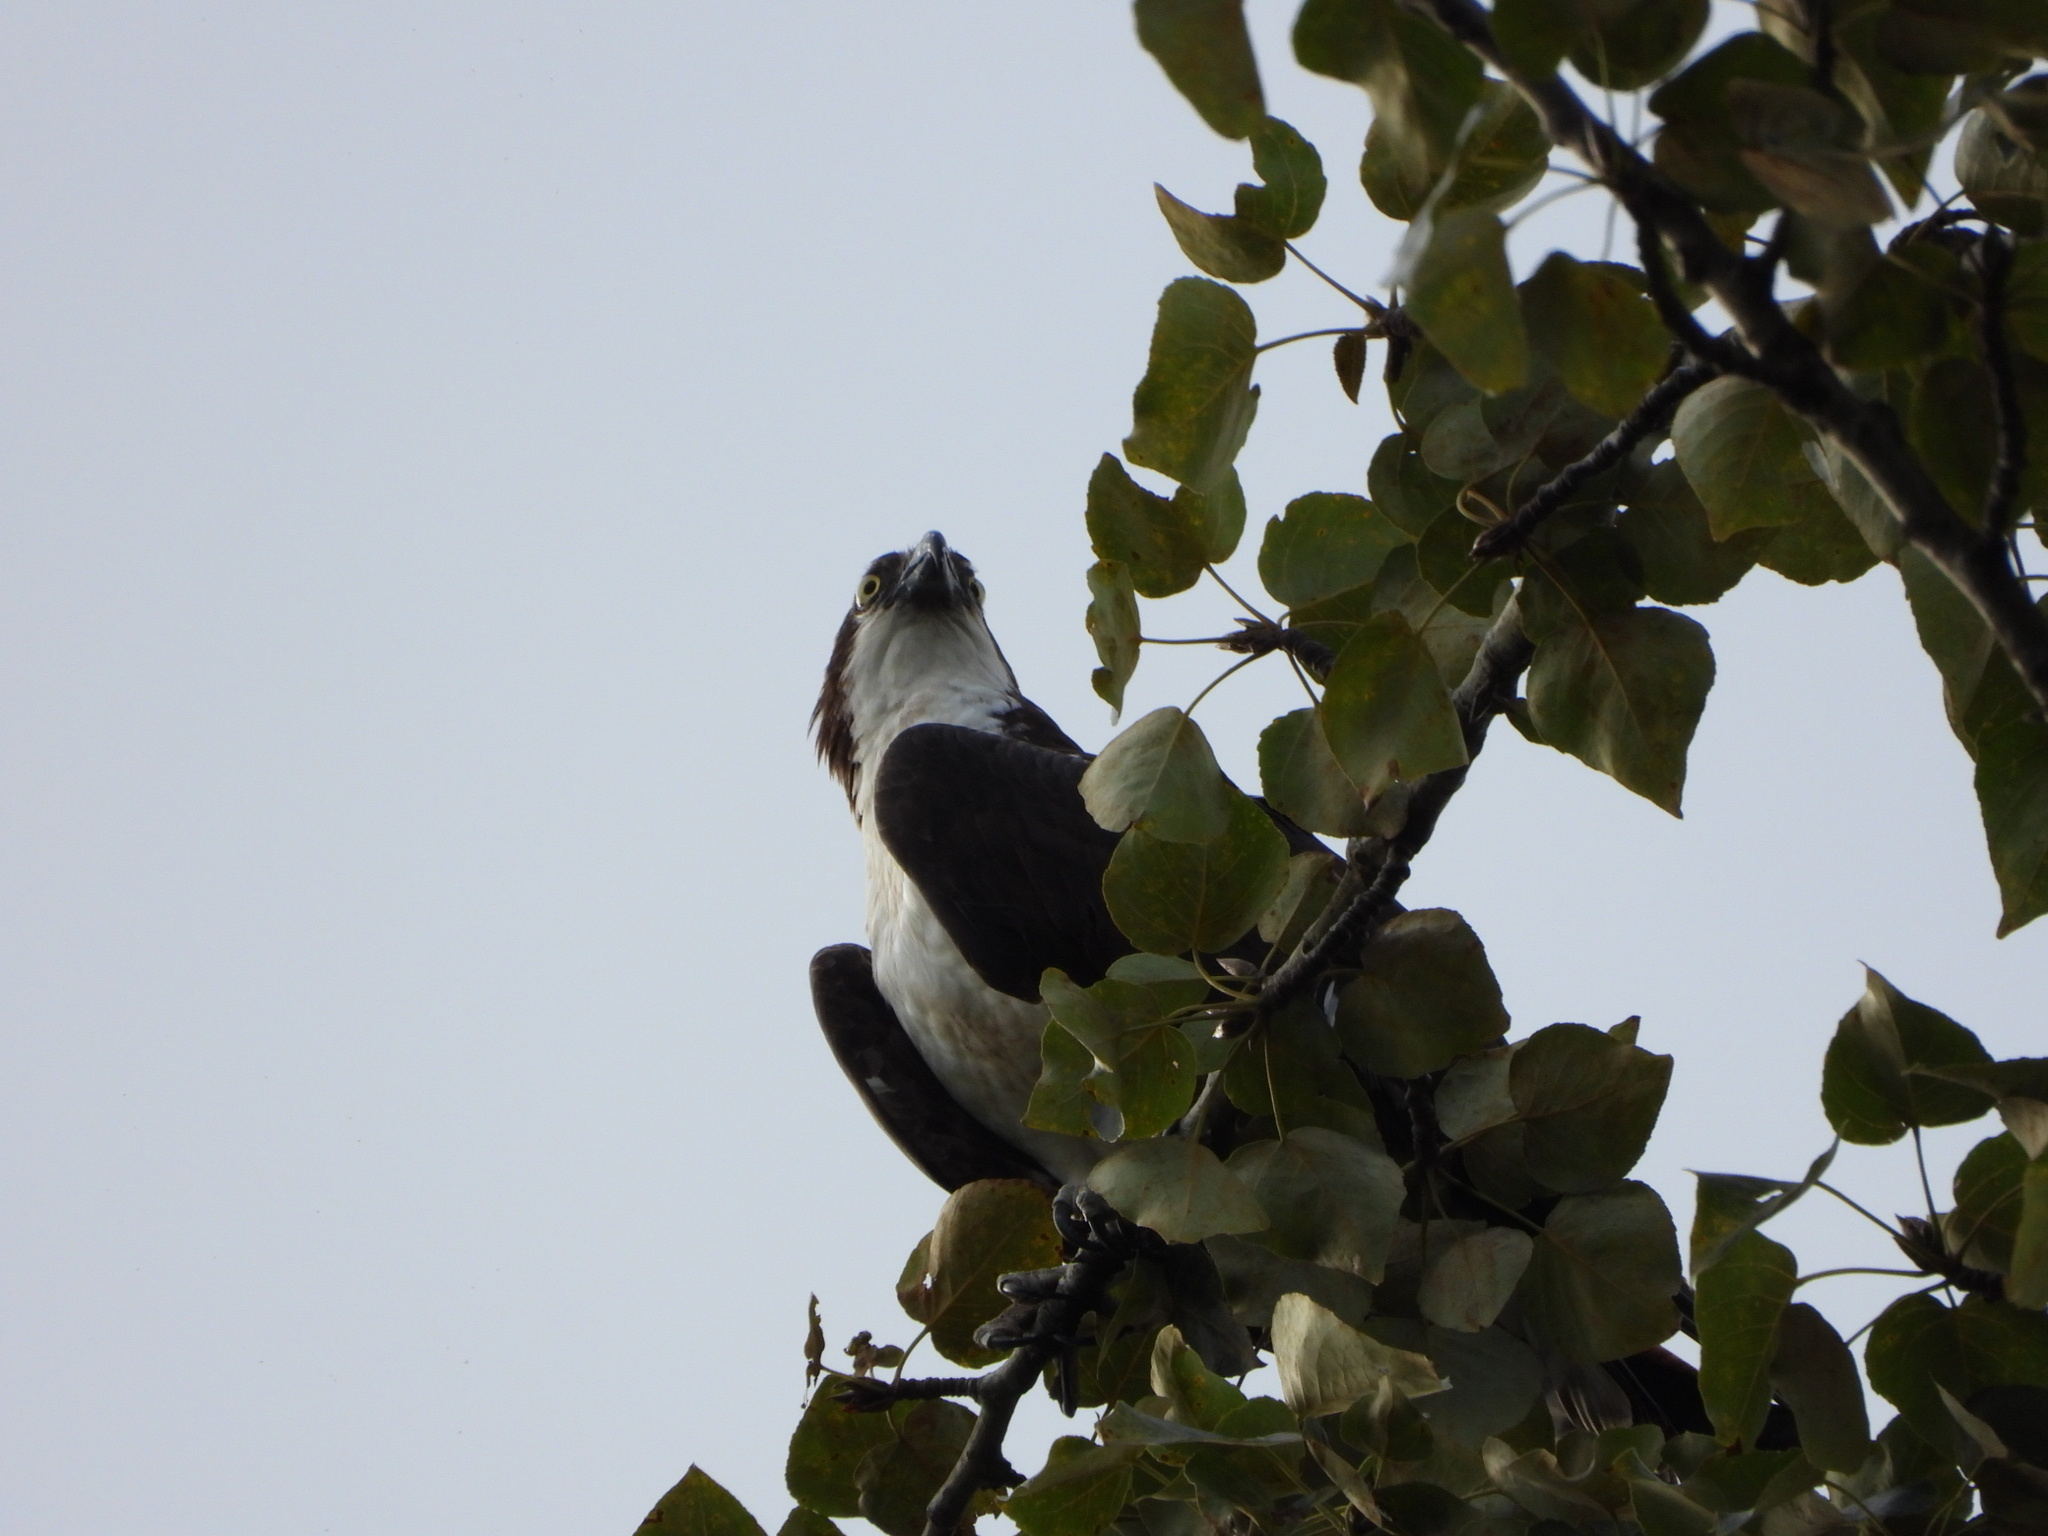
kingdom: Animalia
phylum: Chordata
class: Aves
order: Accipitriformes
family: Pandionidae
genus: Pandion
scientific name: Pandion haliaetus
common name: Osprey
